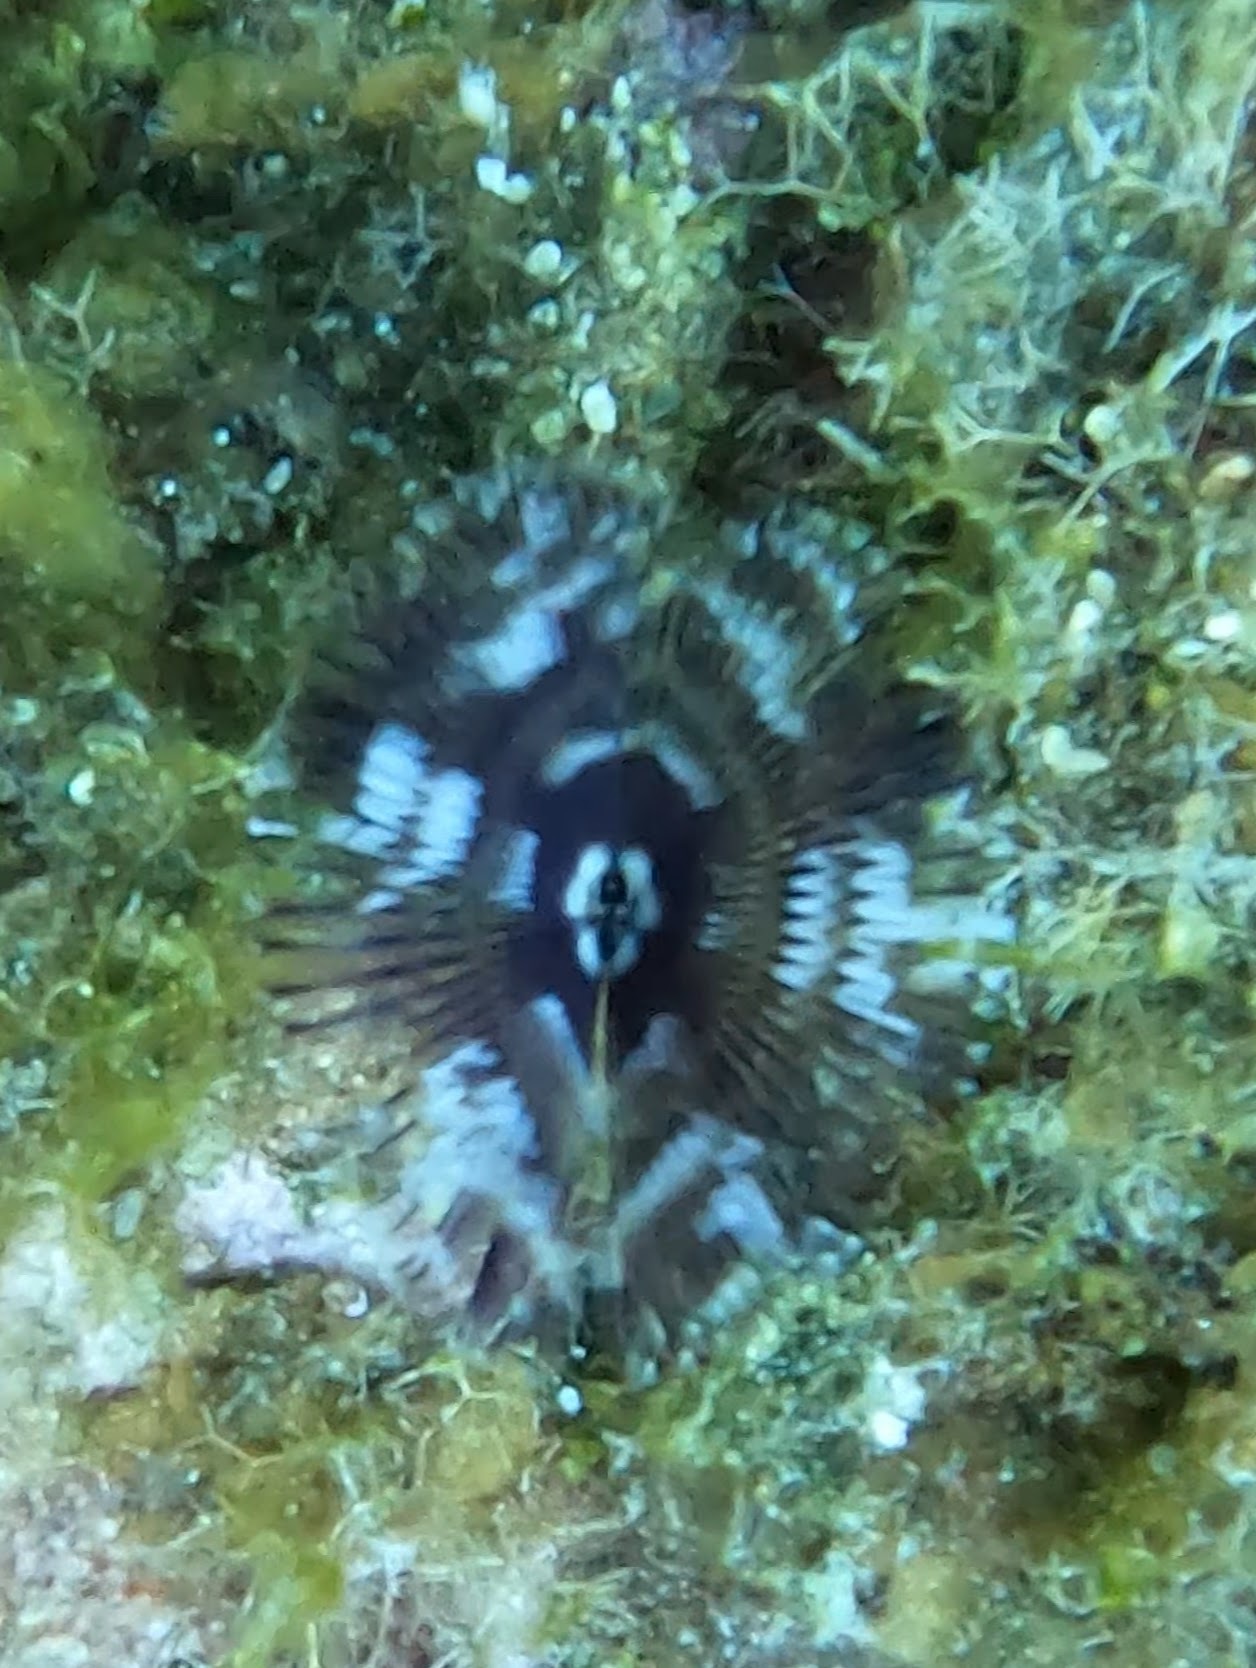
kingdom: Animalia
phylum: Annelida
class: Polychaeta
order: Sabellida
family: Sabellidae
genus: Anamobaea
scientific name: Anamobaea orstedii
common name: Split-crown feather duster
